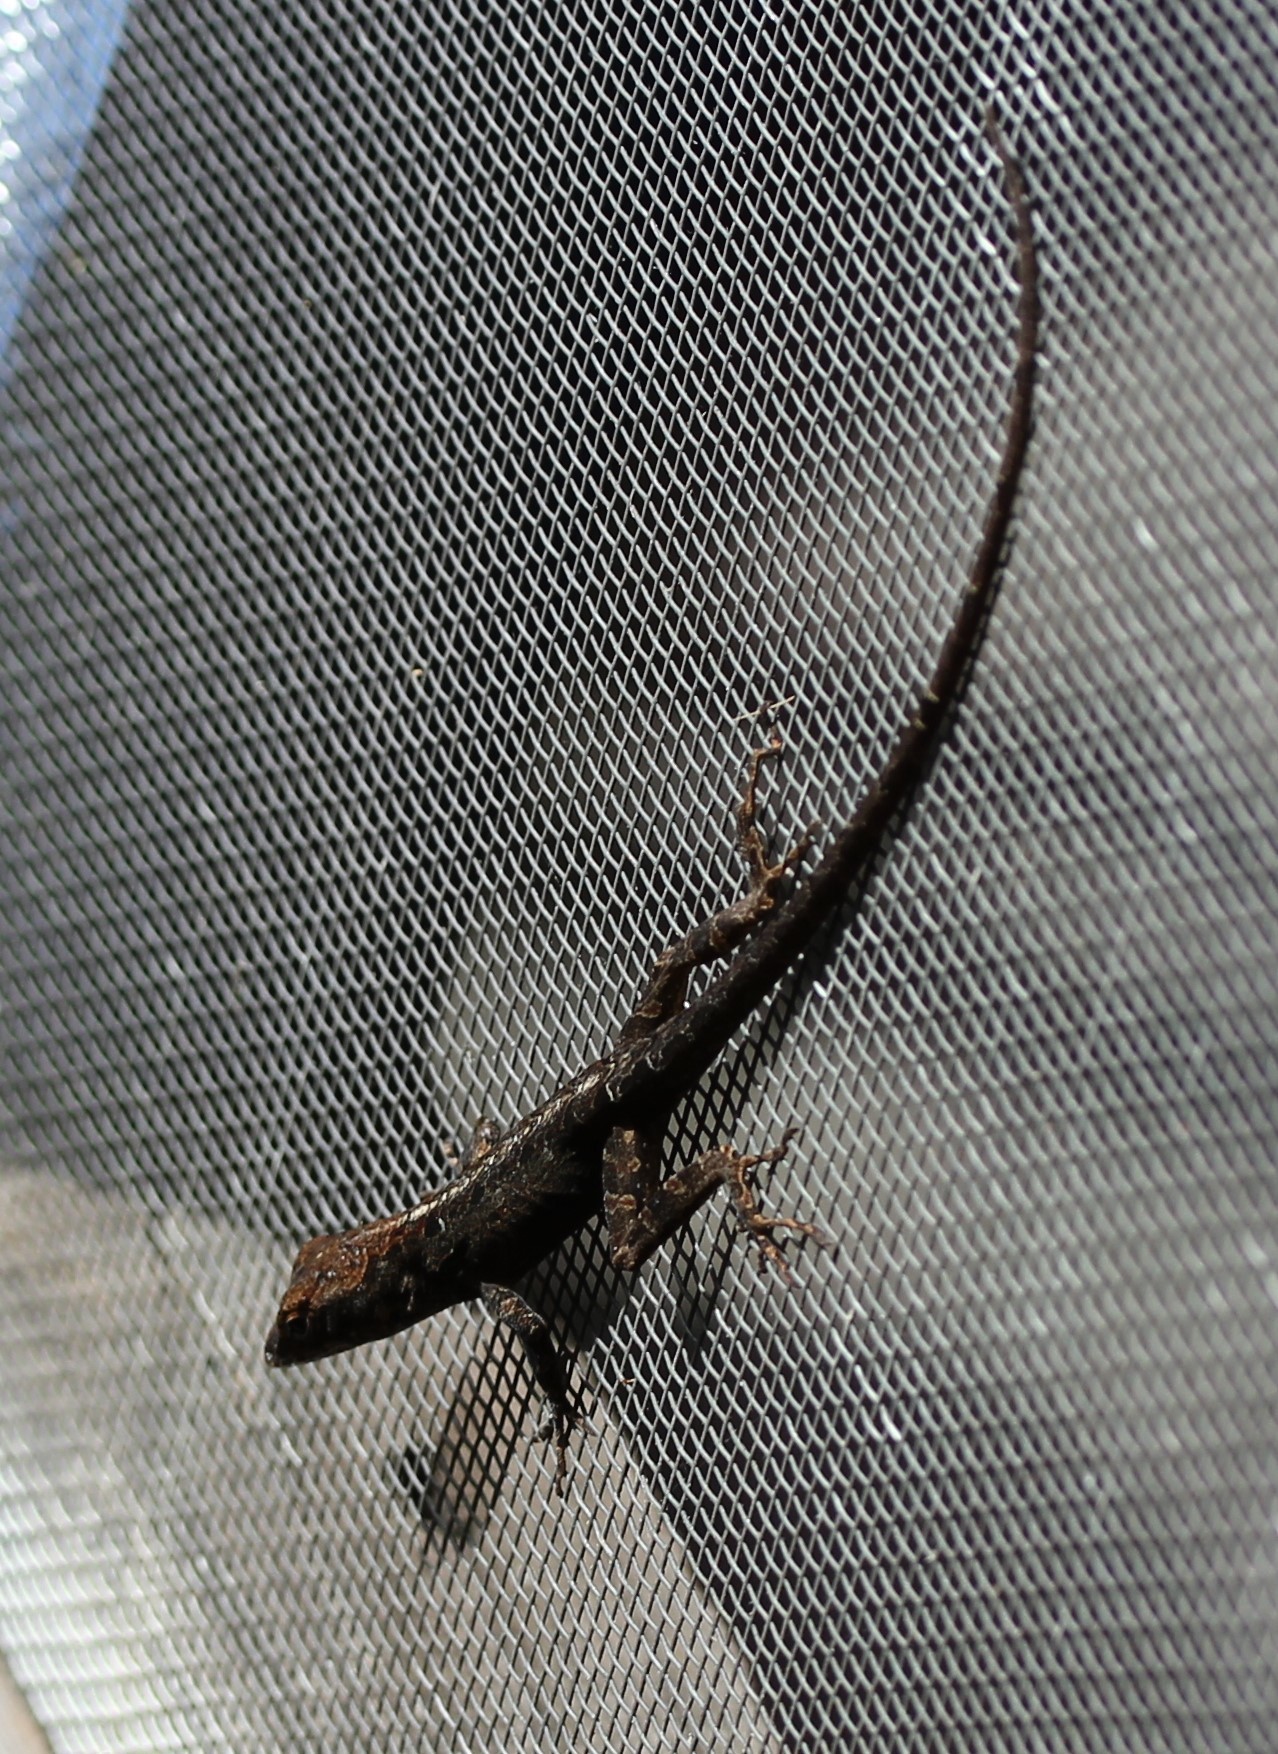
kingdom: Animalia
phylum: Chordata
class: Squamata
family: Dactyloidae
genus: Anolis
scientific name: Anolis sagrei
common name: Brown anole
